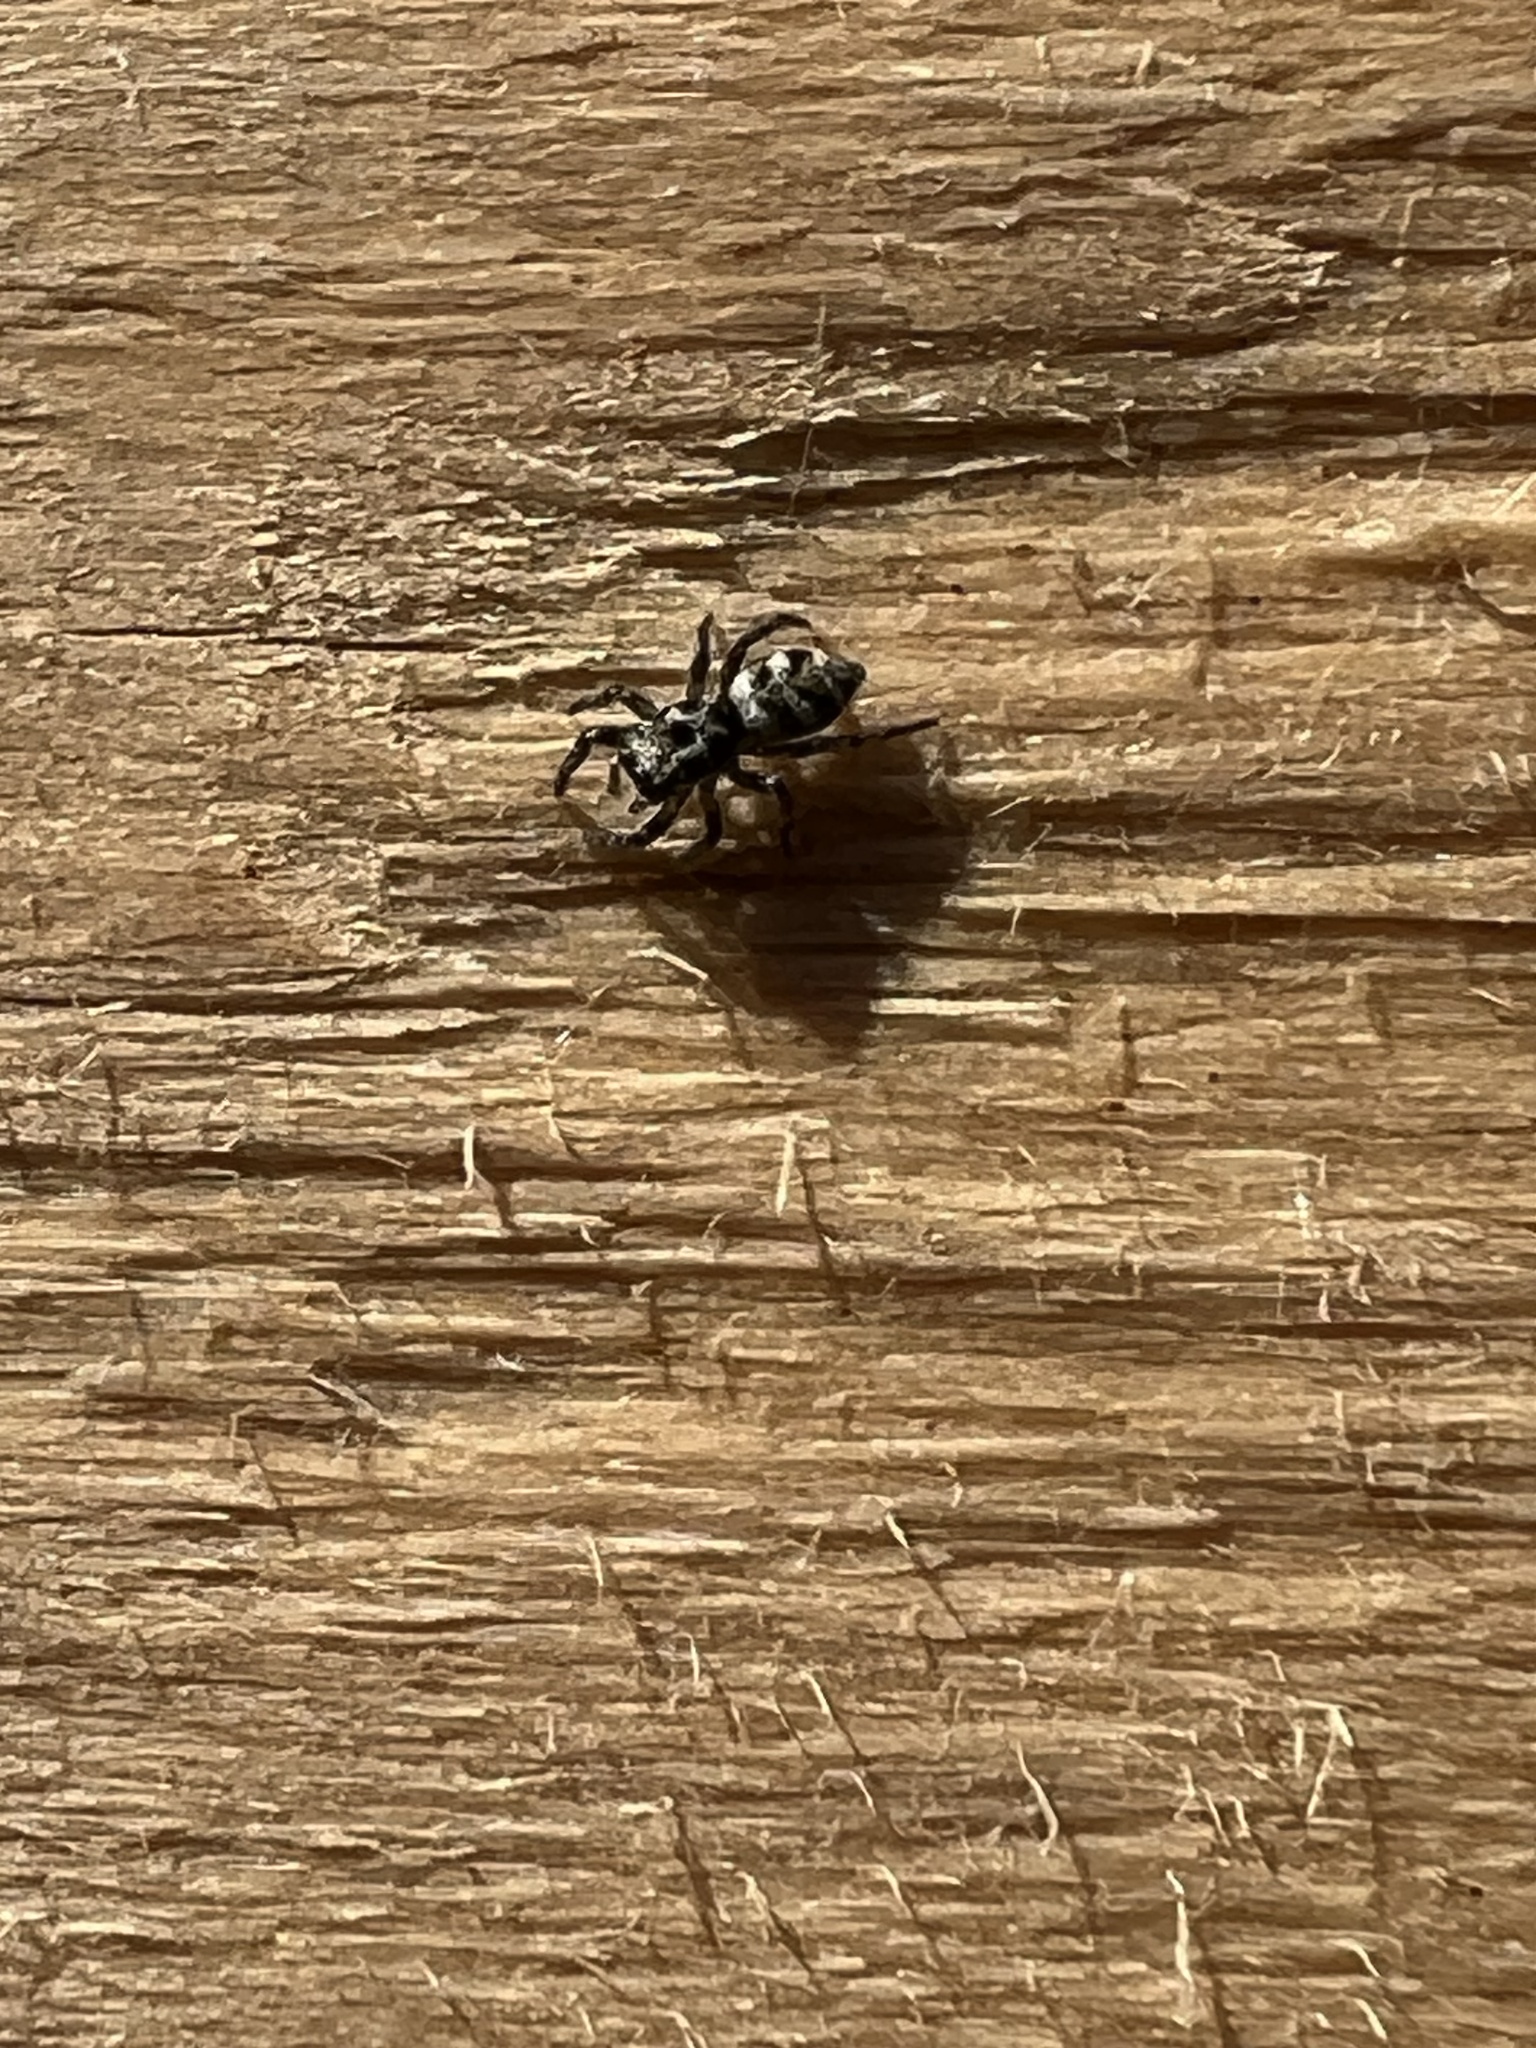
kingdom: Animalia
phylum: Arthropoda
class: Arachnida
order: Araneae
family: Salticidae
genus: Salticus
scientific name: Salticus scenicus
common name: Zebra jumper
